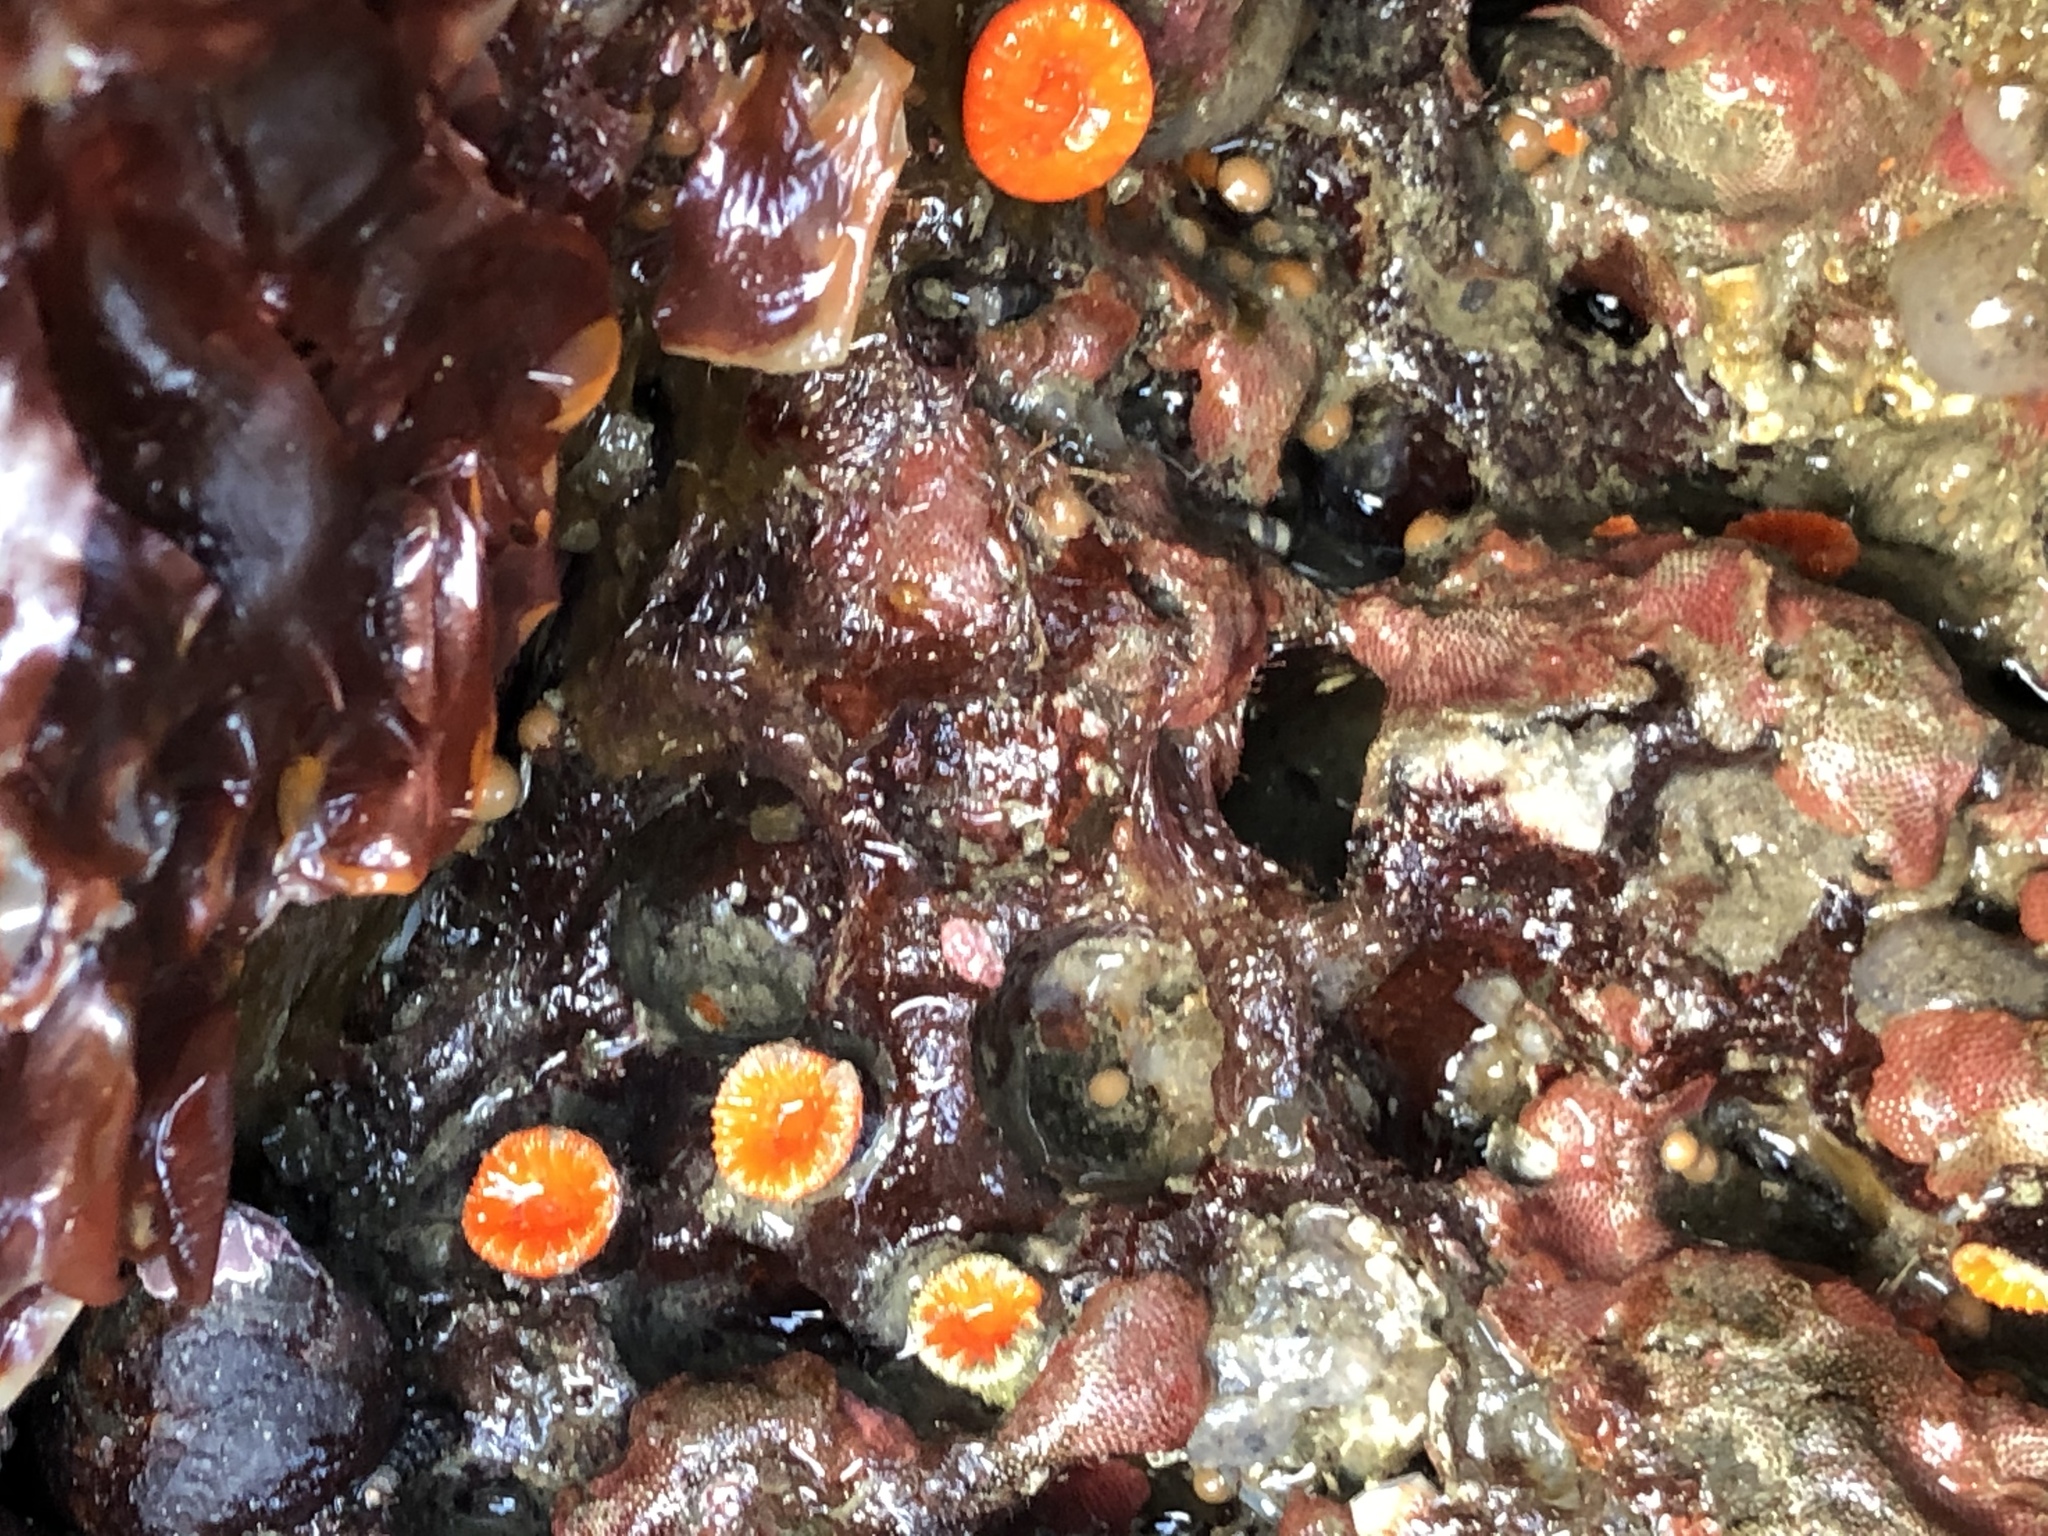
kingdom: Animalia
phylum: Cnidaria
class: Anthozoa
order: Scleractinia
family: Dendrophylliidae
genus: Balanophyllia
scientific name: Balanophyllia elegans
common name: Orange stony coral
